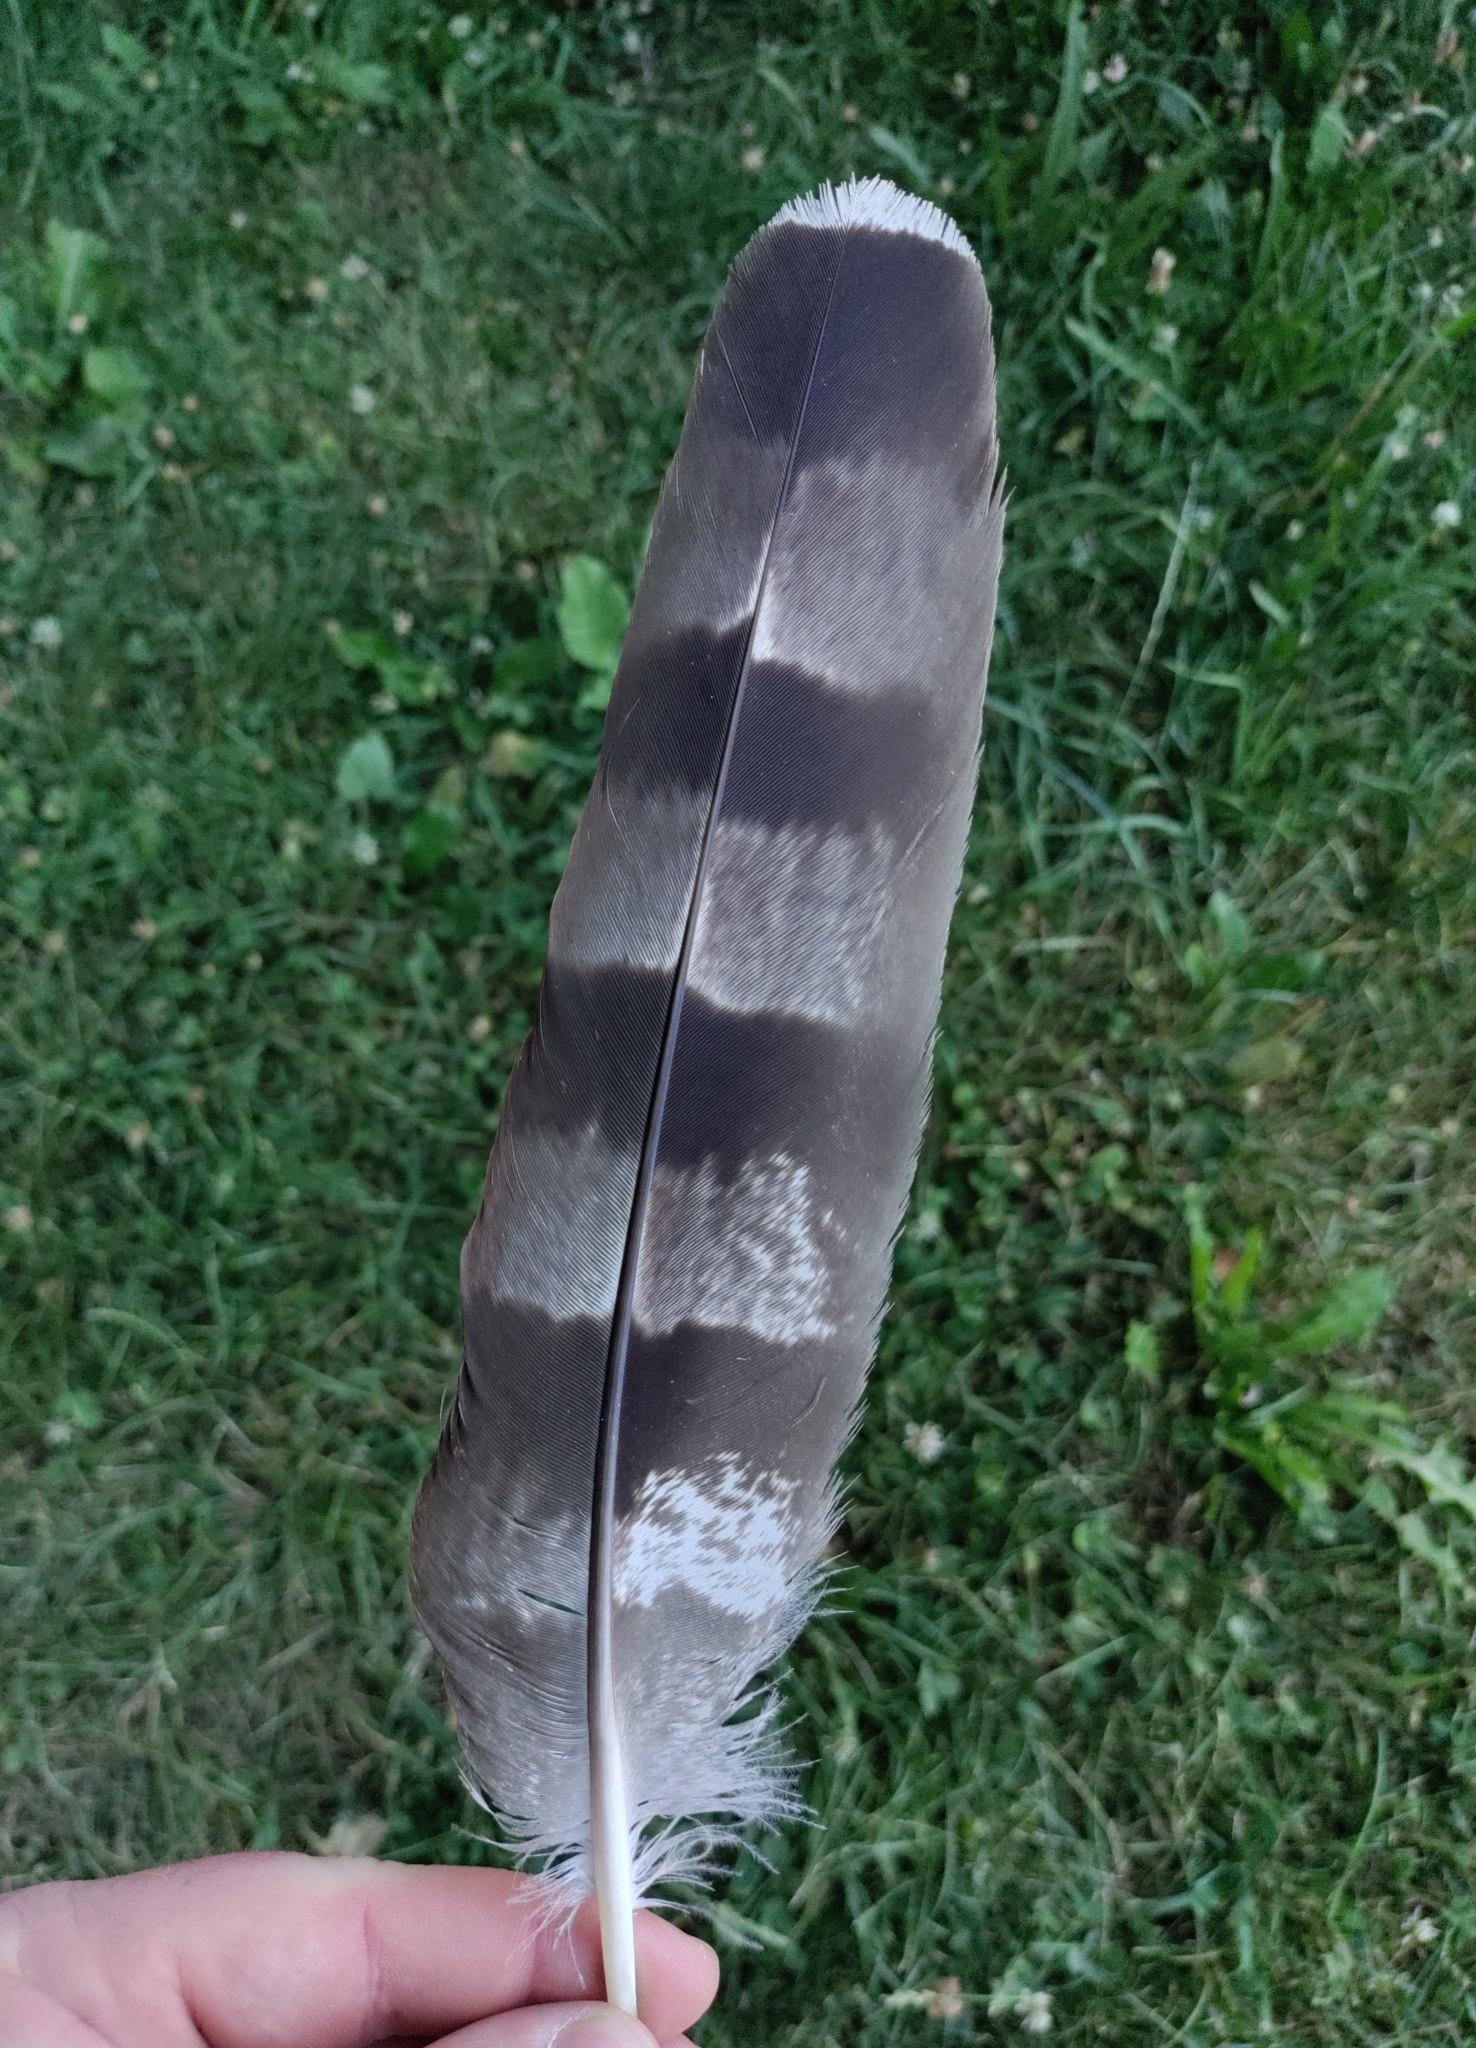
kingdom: Animalia
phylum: Chordata
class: Aves
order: Accipitriformes
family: Accipitridae
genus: Accipiter
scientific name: Accipiter gentilis
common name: Northern goshawk
